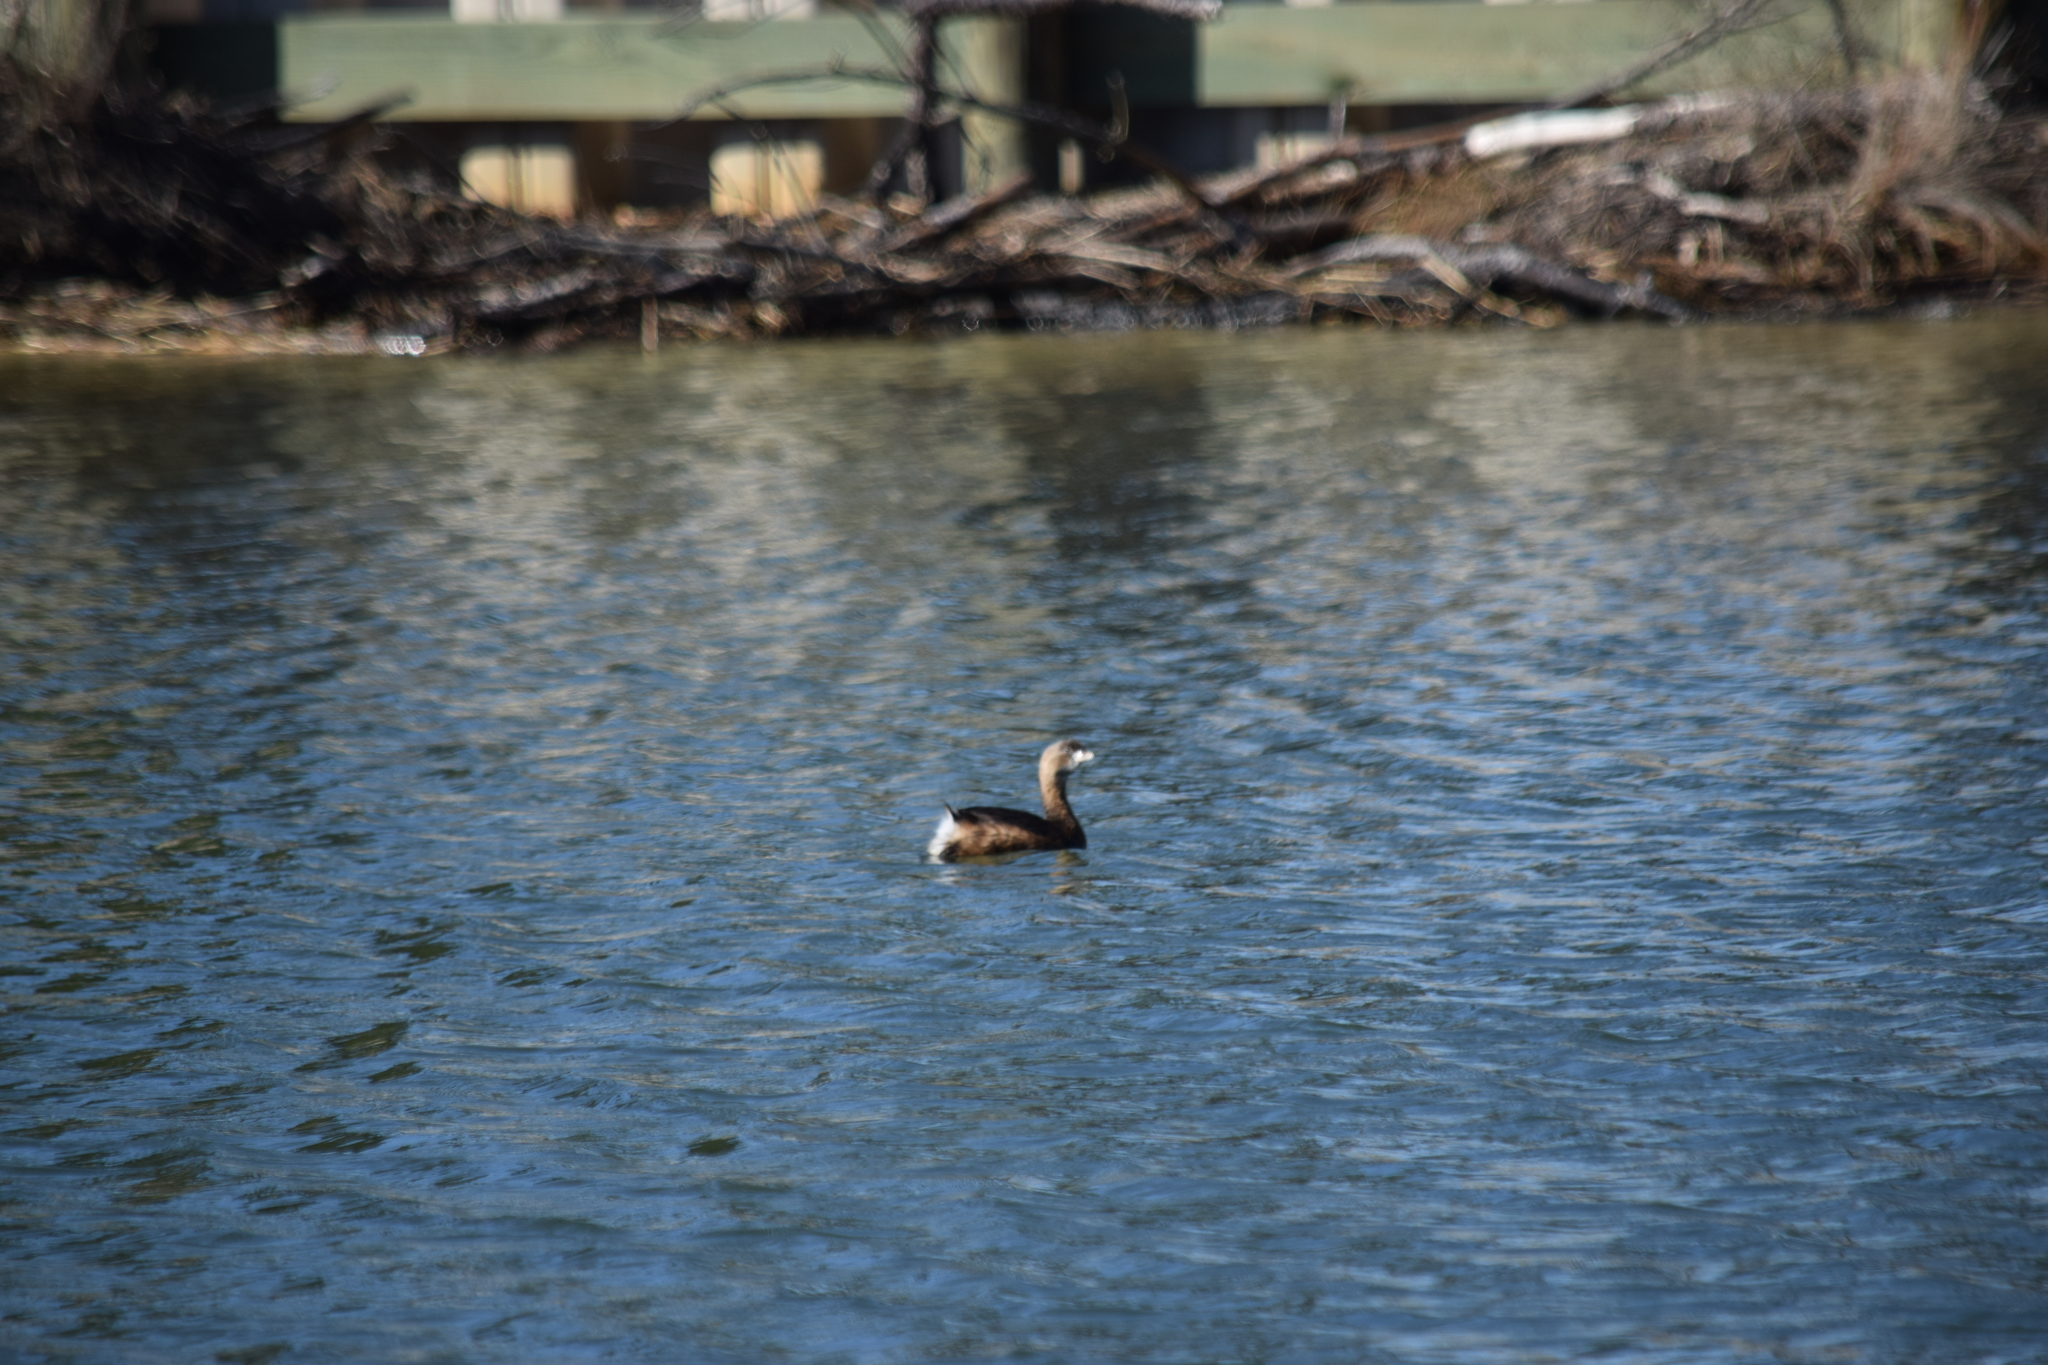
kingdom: Animalia
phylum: Chordata
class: Aves
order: Podicipediformes
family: Podicipedidae
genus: Podilymbus
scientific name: Podilymbus podiceps
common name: Pied-billed grebe
